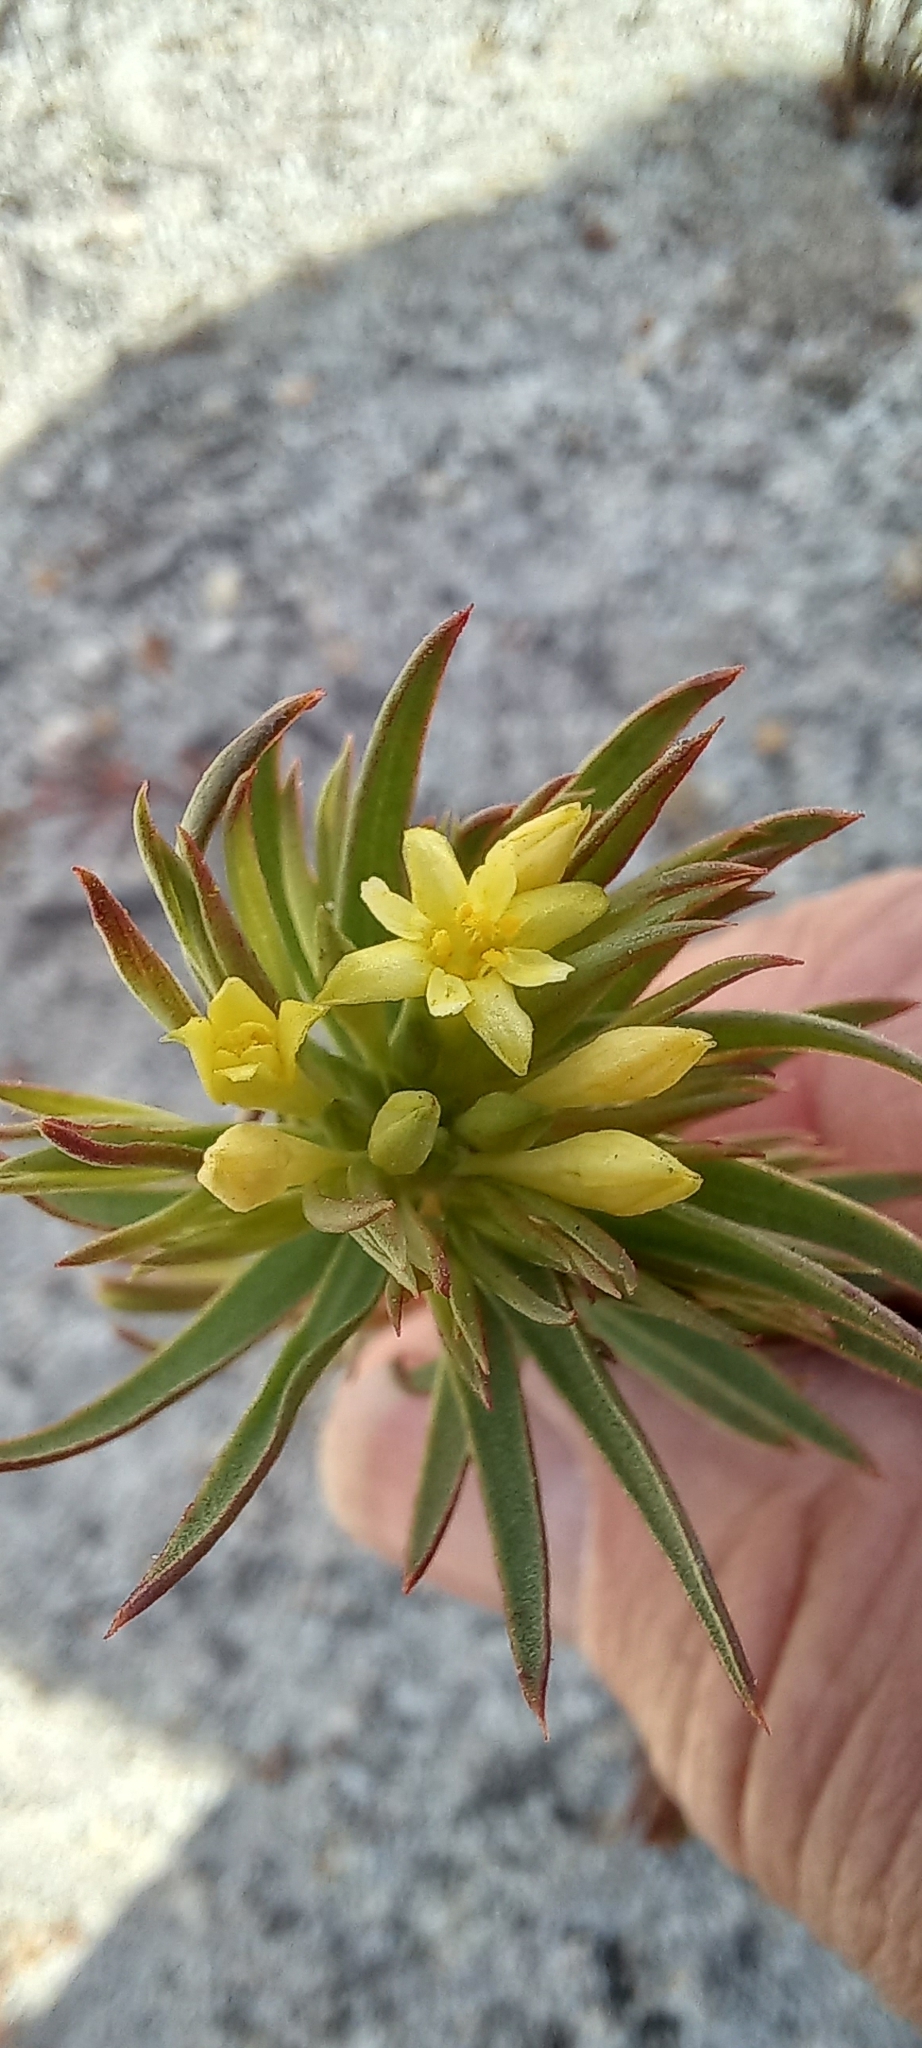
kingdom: Plantae
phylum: Tracheophyta
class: Magnoliopsida
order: Malvales
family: Thymelaeaceae
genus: Gnidia
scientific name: Gnidia juniperifolia
